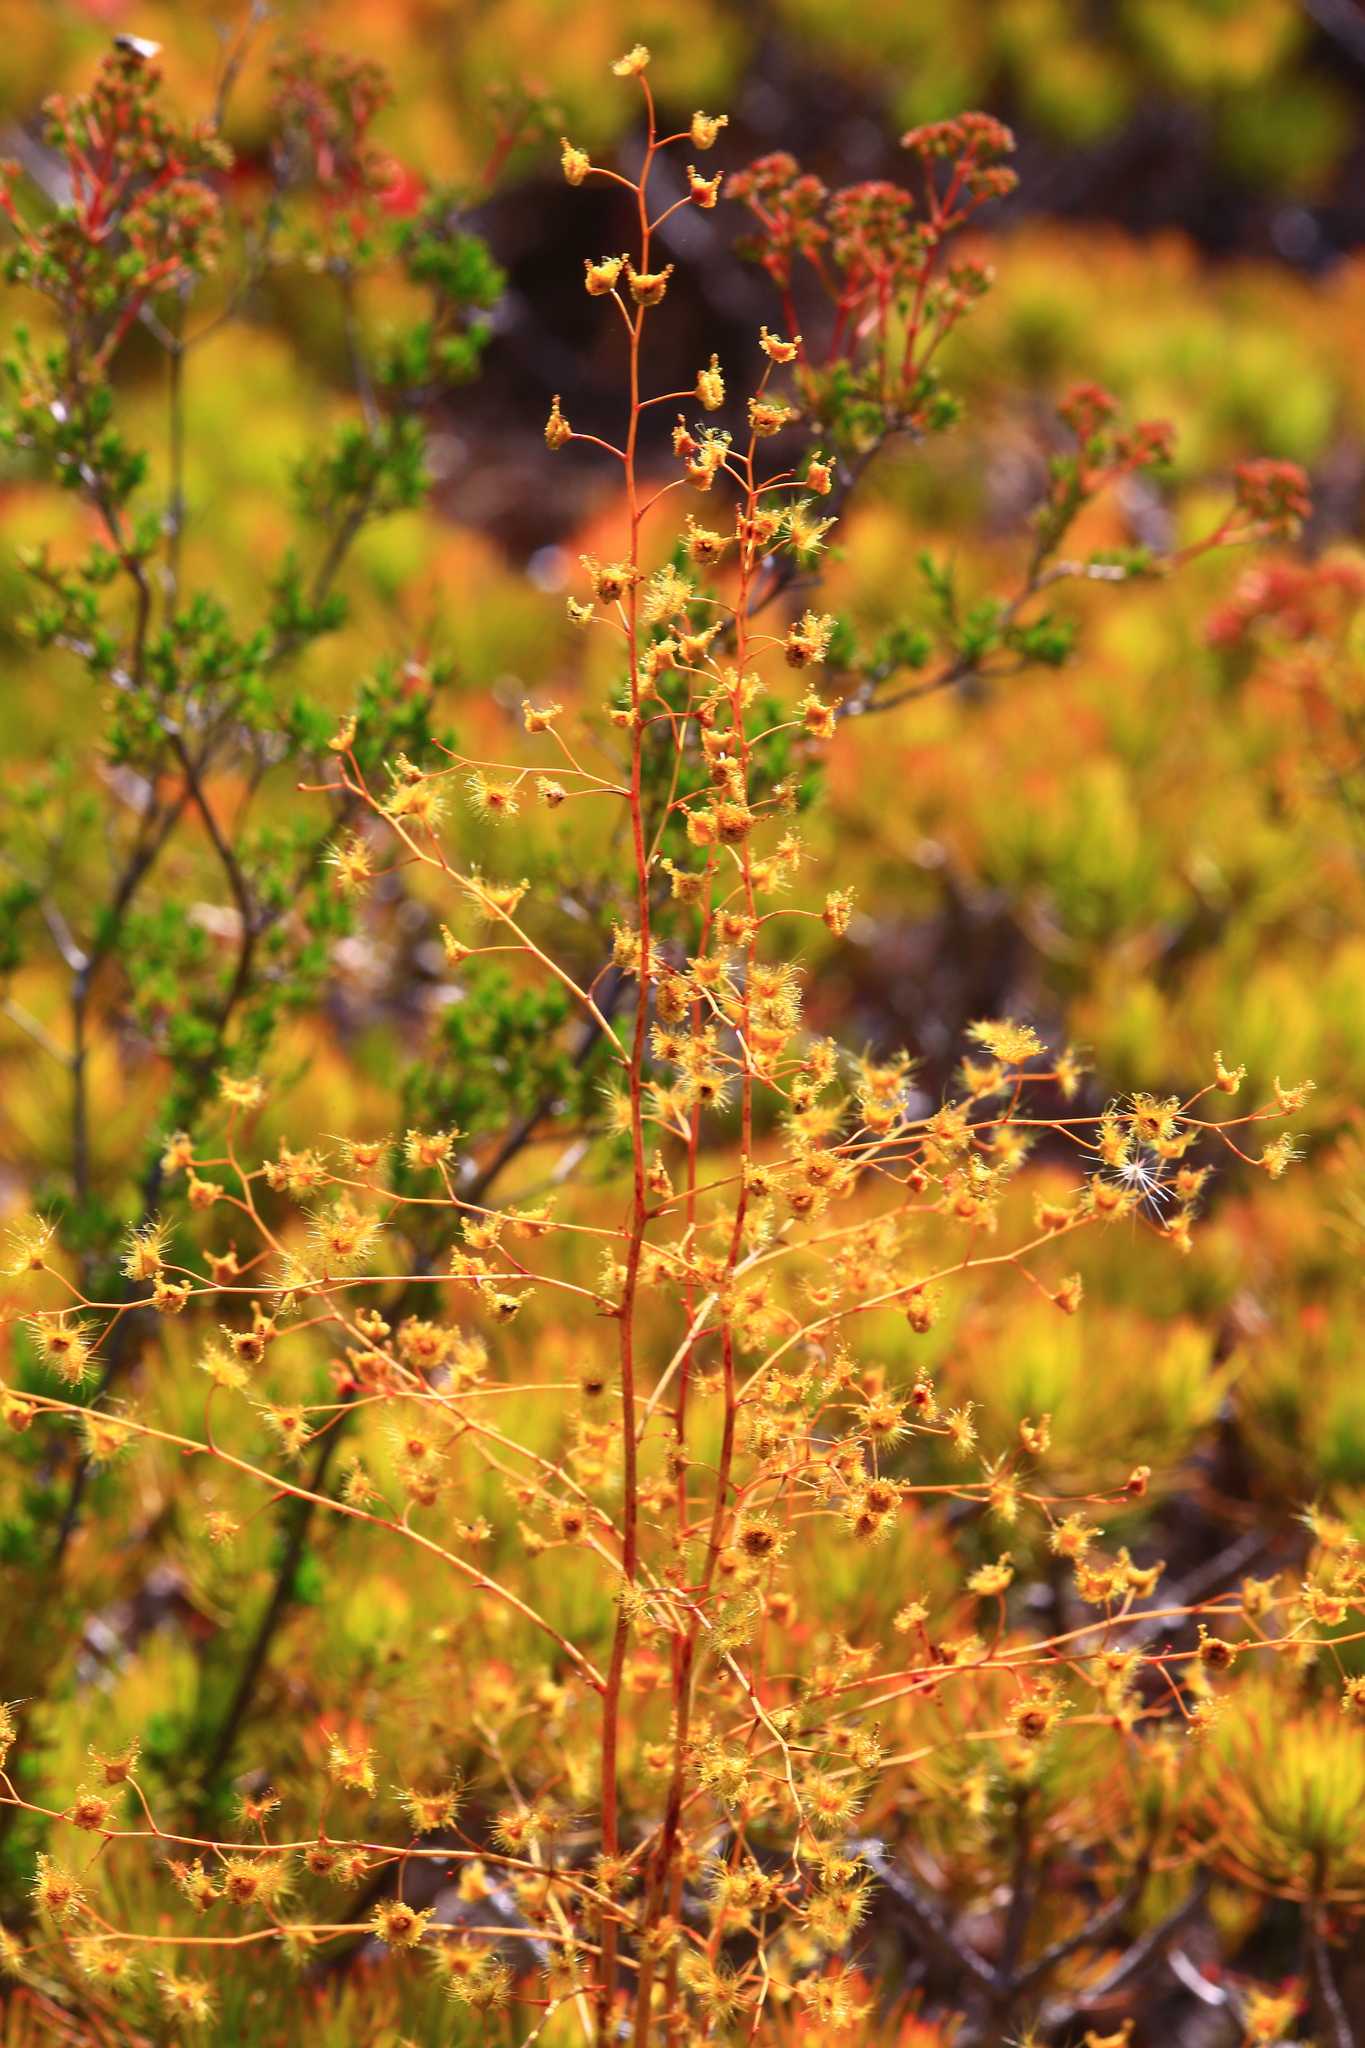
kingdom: Plantae
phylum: Tracheophyta
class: Magnoliopsida
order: Caryophyllales
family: Droseraceae
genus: Drosera
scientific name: Drosera gigantea
